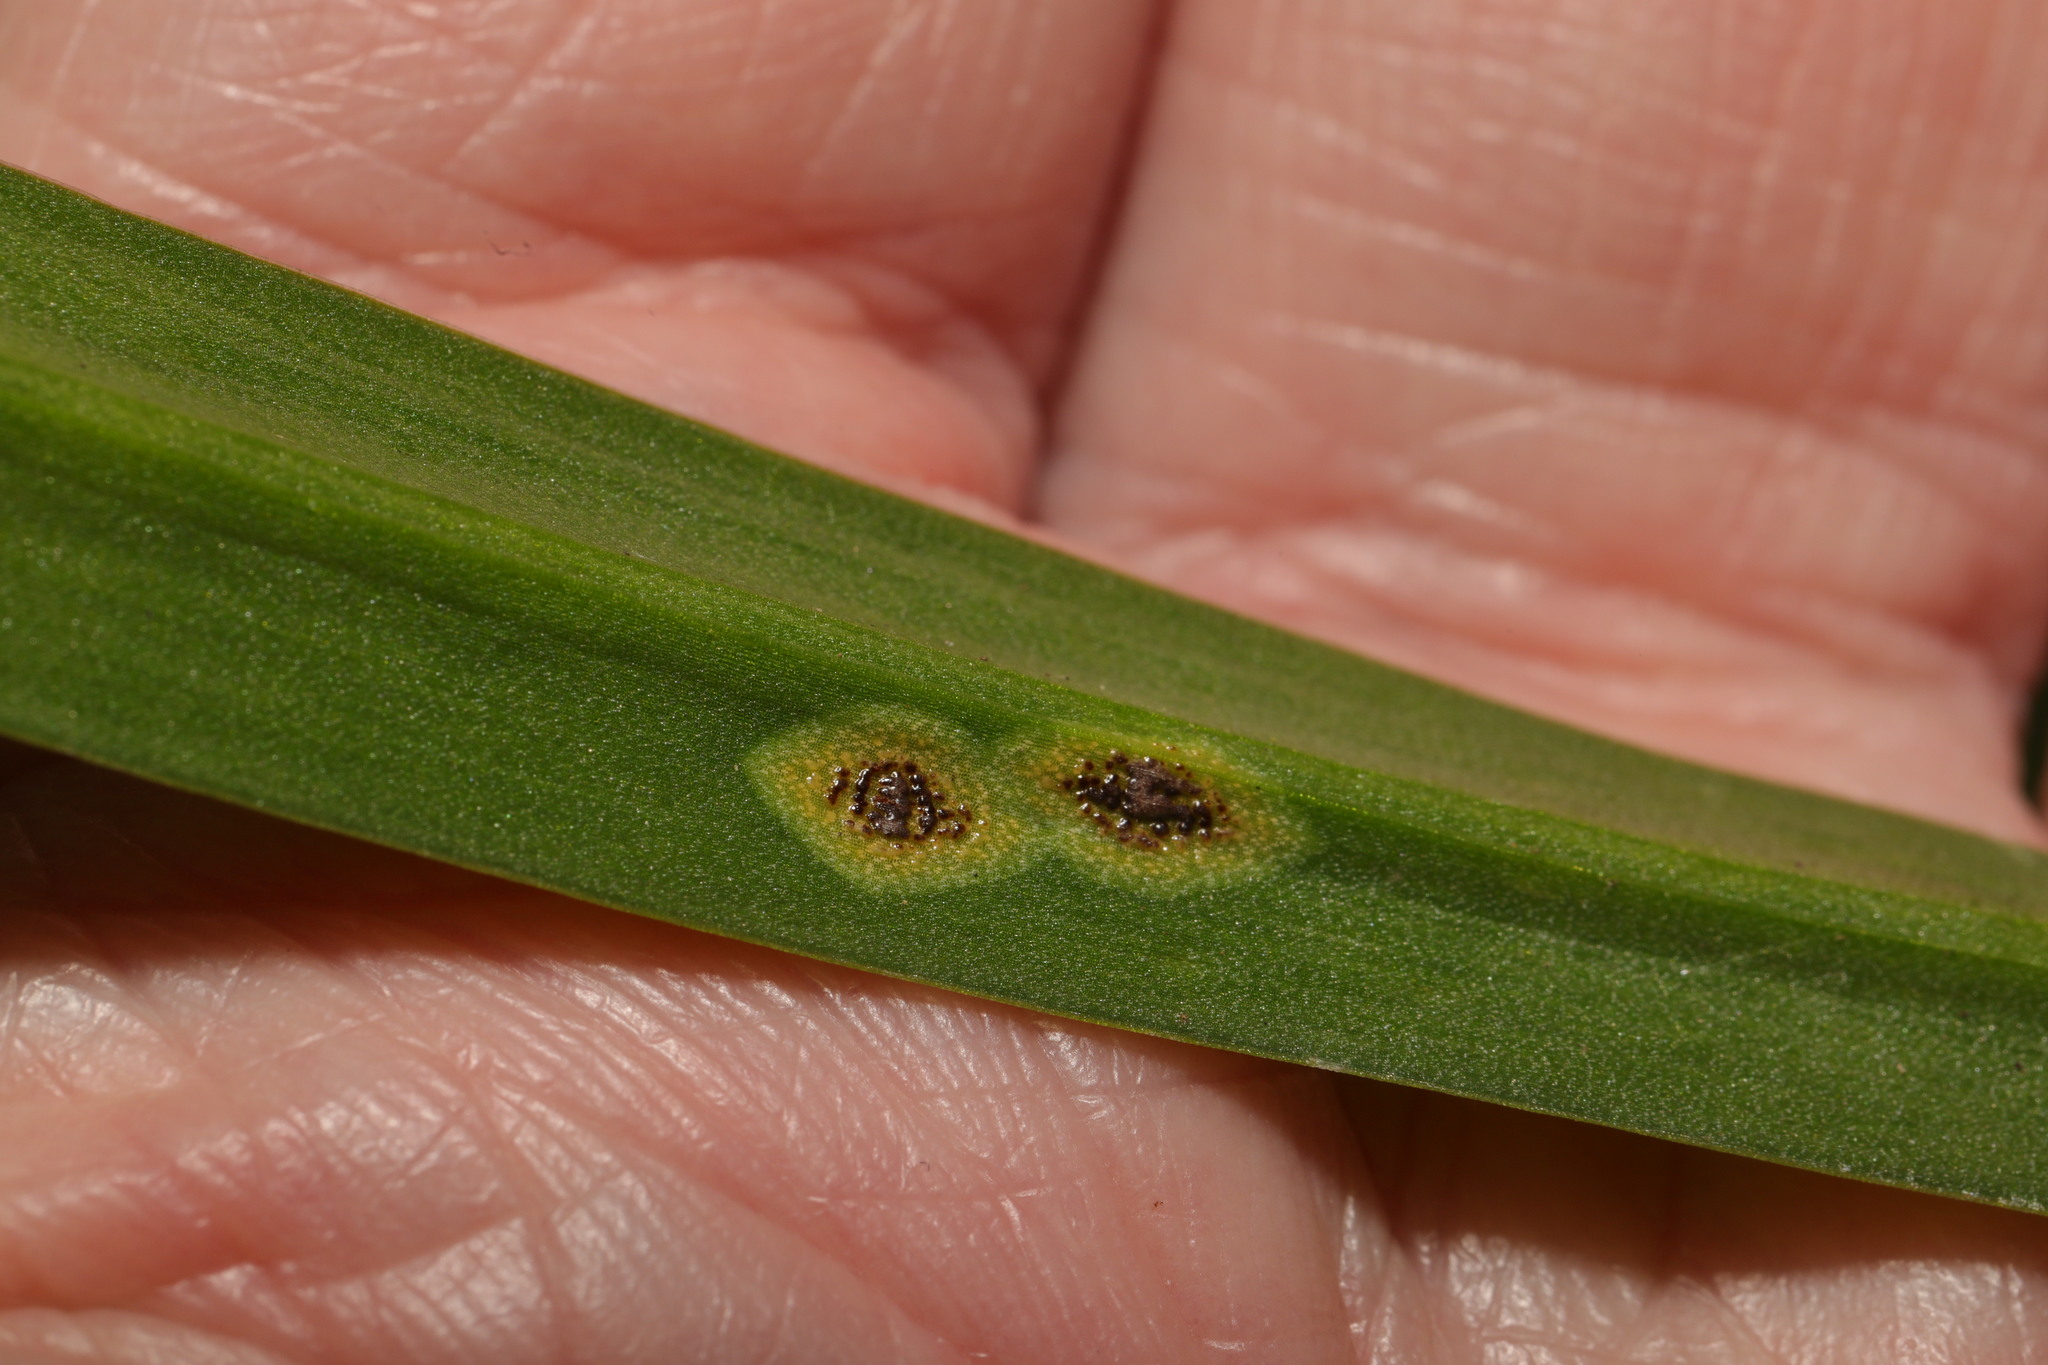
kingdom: Fungi
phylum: Basidiomycota
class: Pucciniomycetes
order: Pucciniales
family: Pucciniaceae
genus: Uromyces
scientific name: Uromyces hyacinthi
